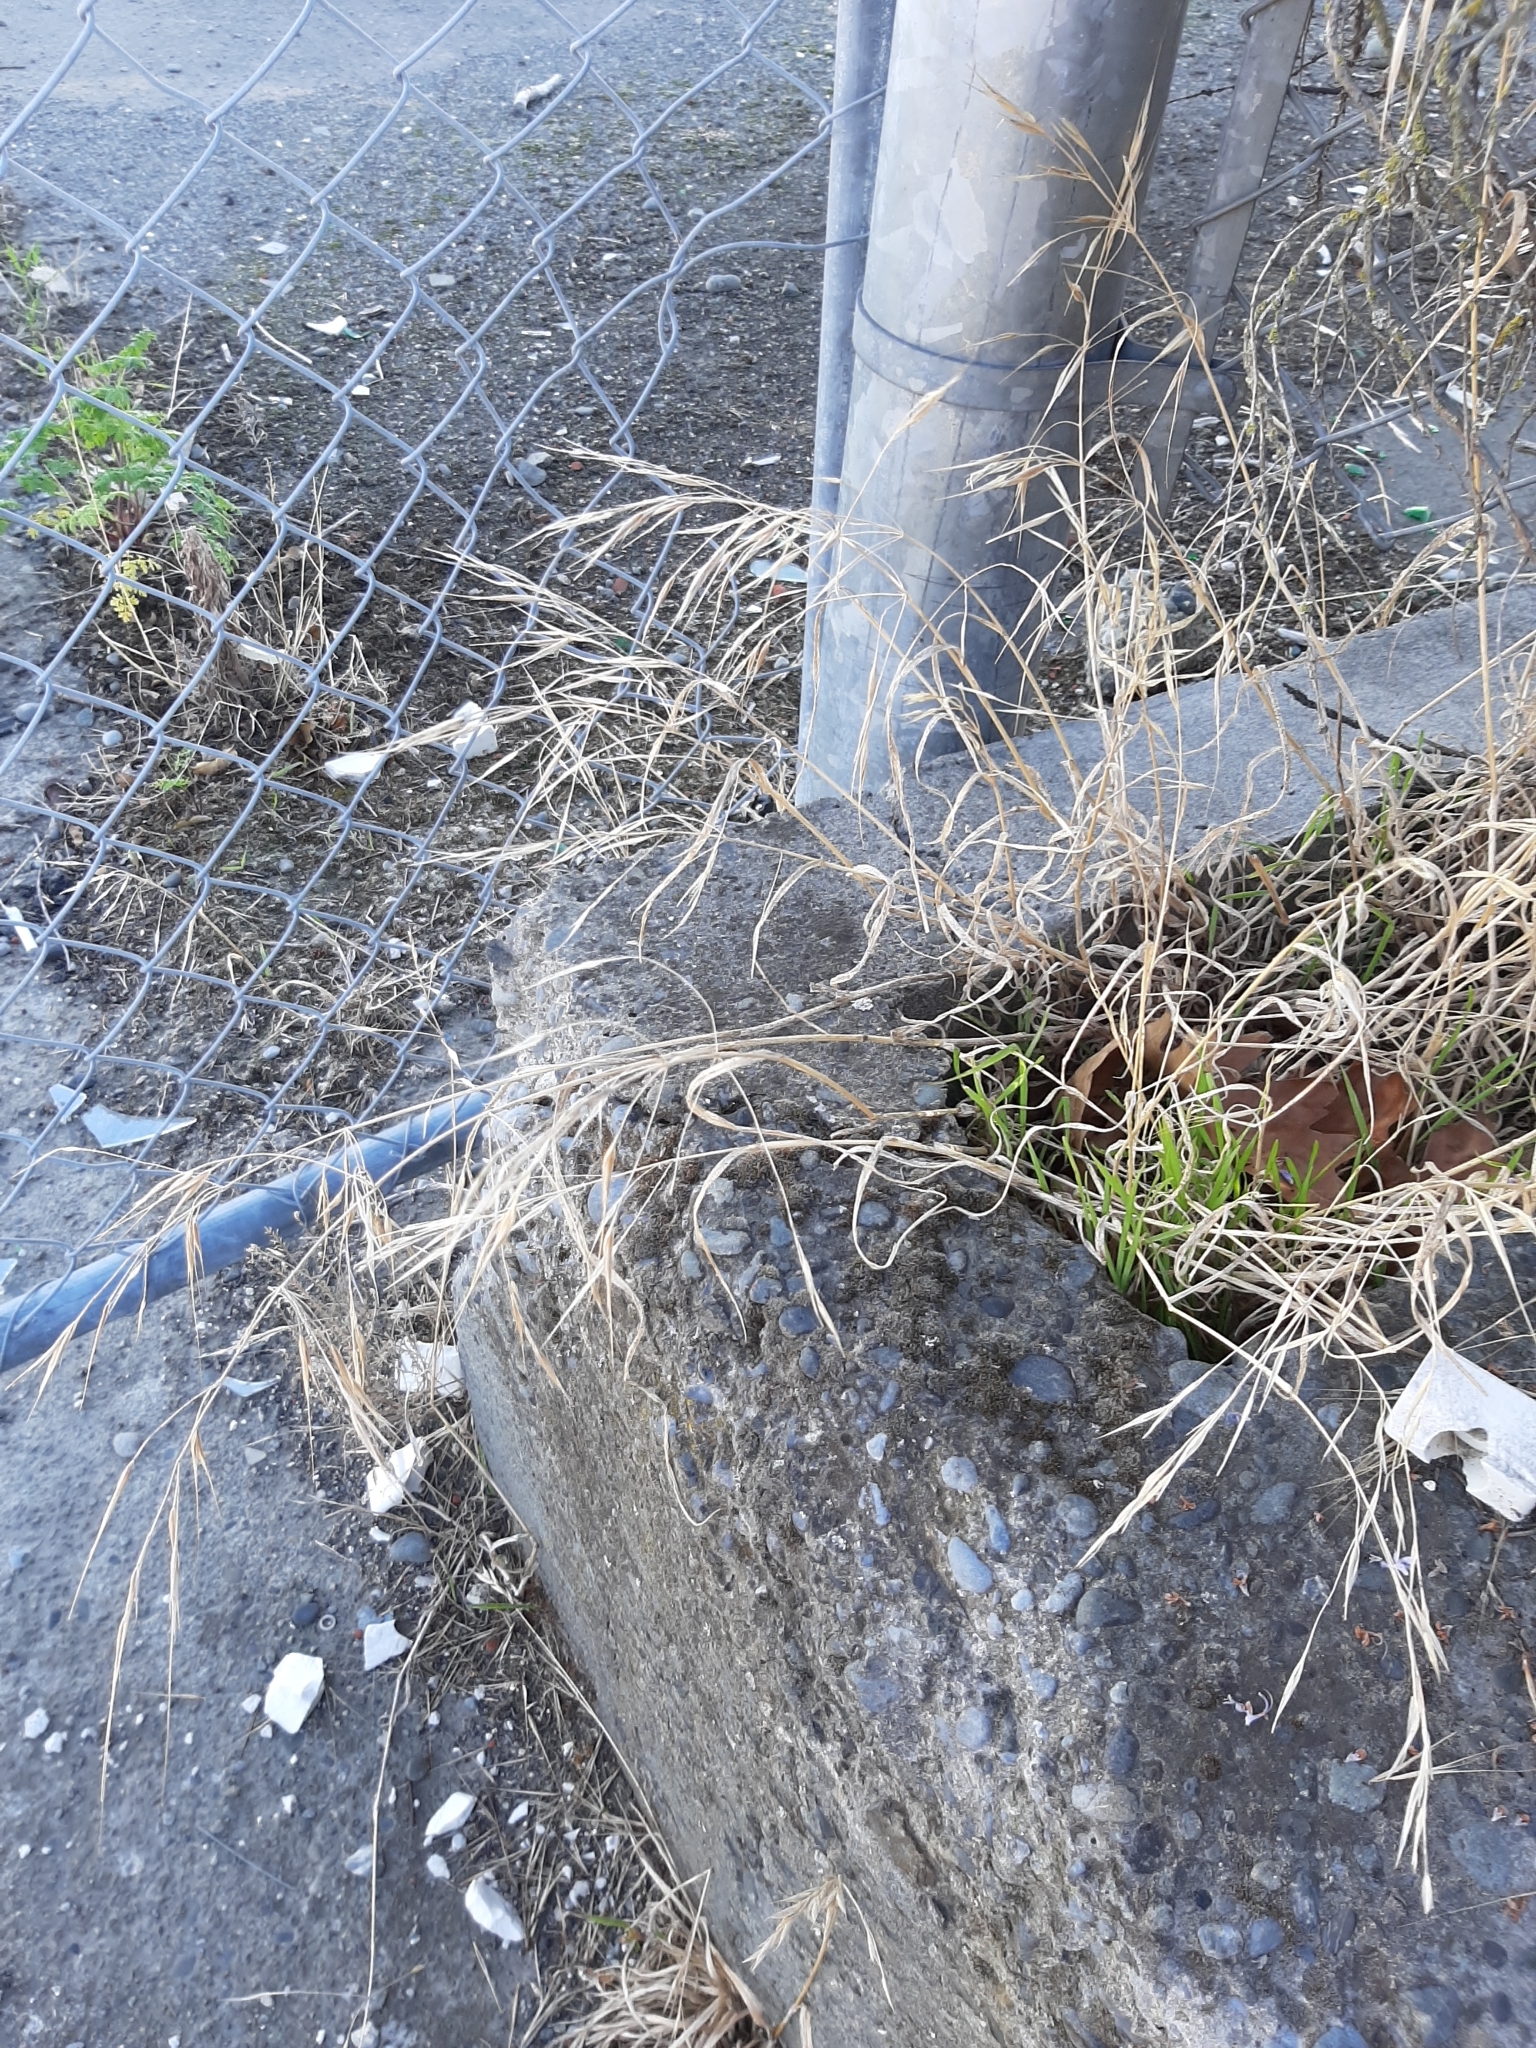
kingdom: Plantae
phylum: Tracheophyta
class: Liliopsida
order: Poales
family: Poaceae
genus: Bromus
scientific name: Bromus diandrus
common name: Ripgut brome
